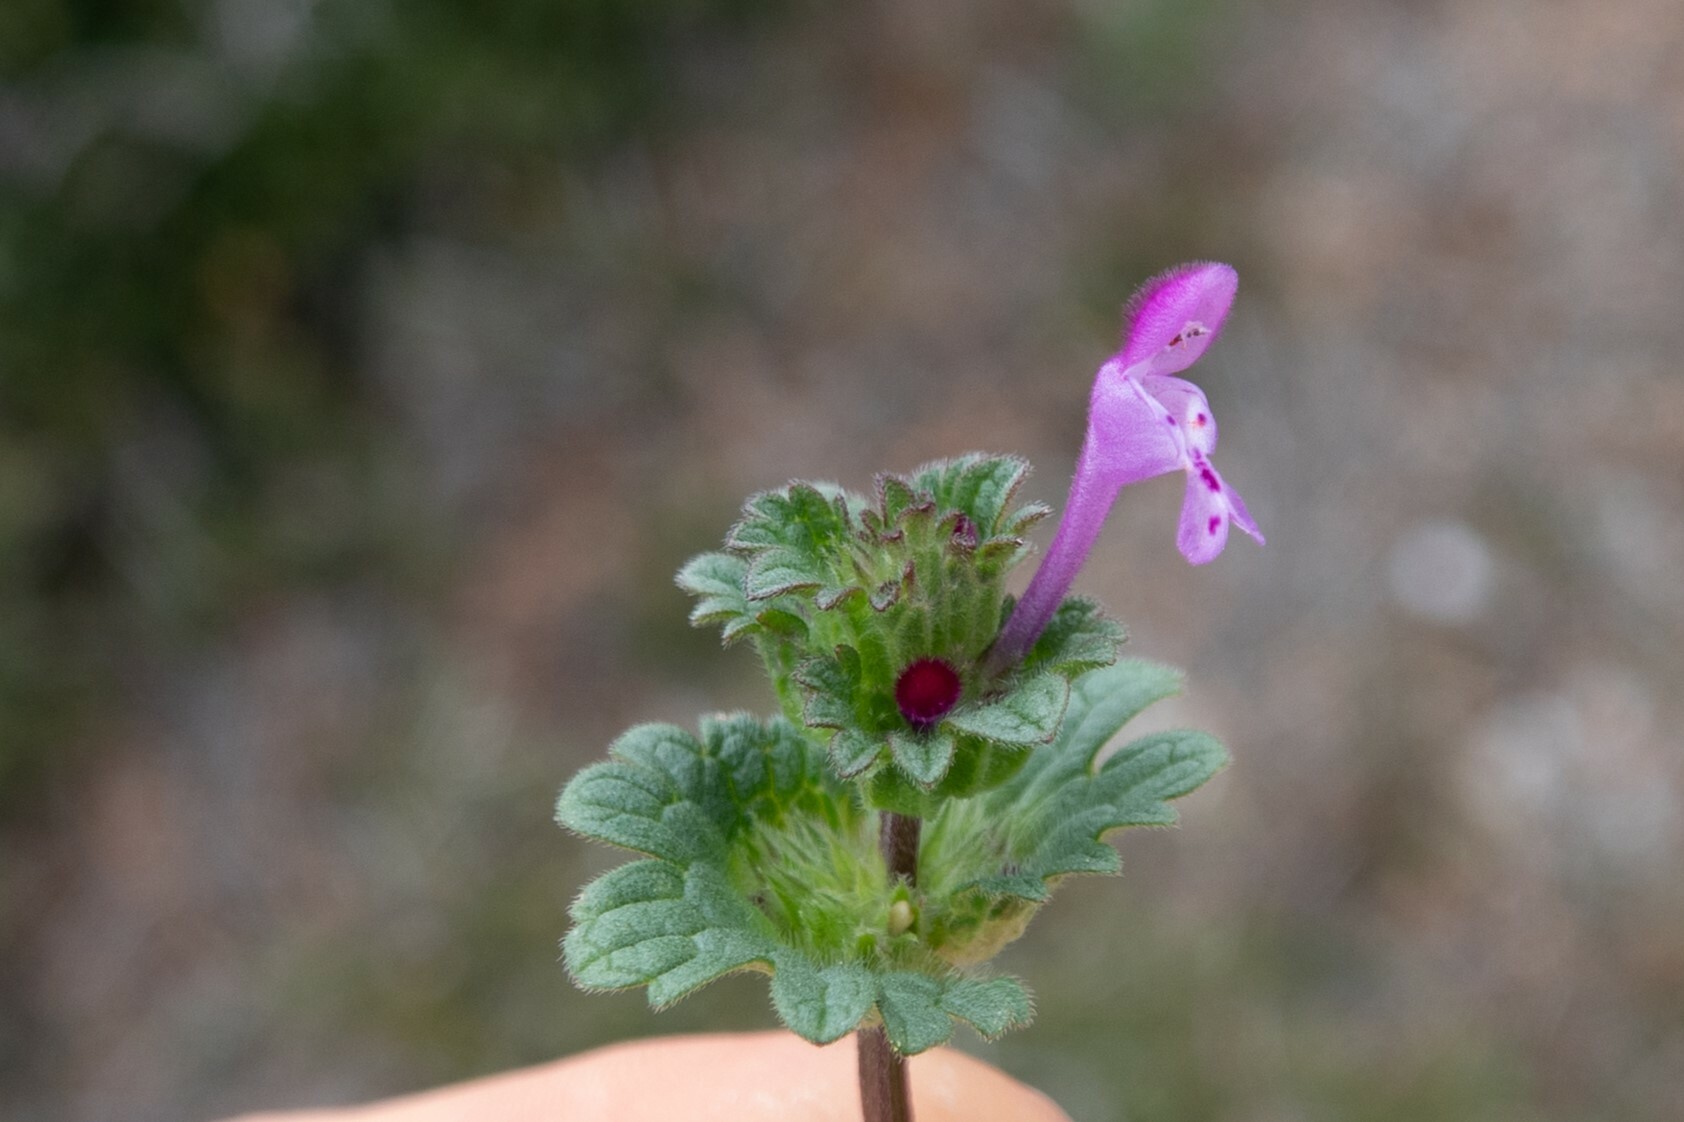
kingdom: Plantae
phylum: Tracheophyta
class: Magnoliopsida
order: Lamiales
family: Lamiaceae
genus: Lamium
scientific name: Lamium amplexicaule
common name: Henbit dead-nettle
